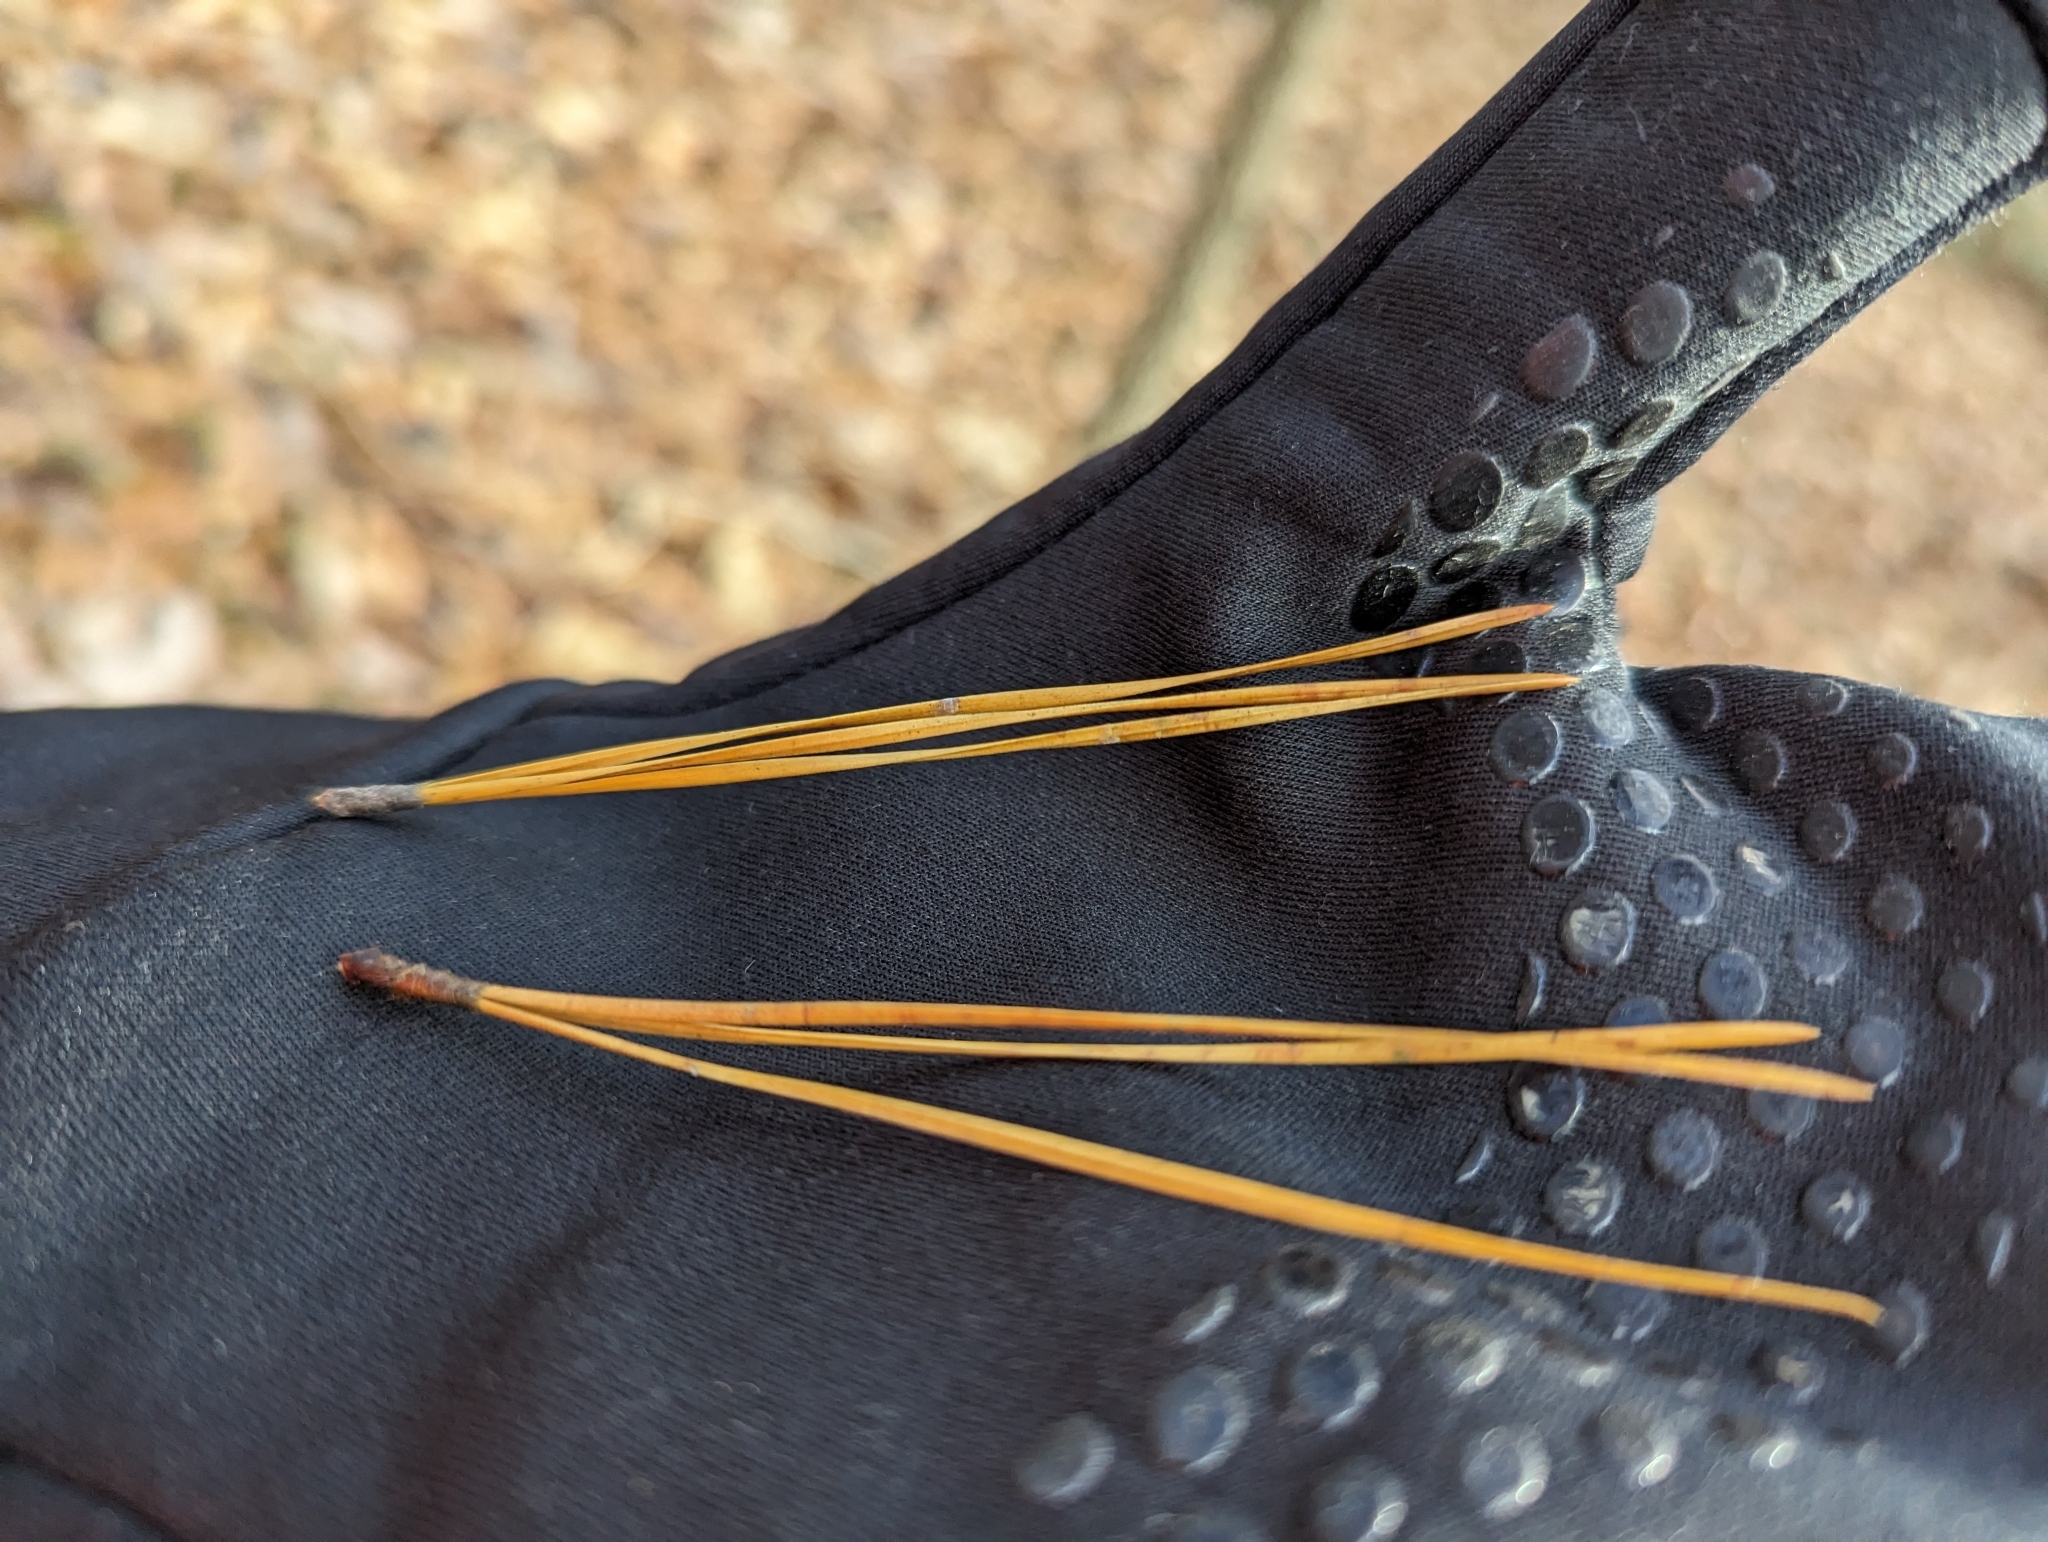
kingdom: Plantae
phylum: Tracheophyta
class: Pinopsida
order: Pinales
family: Pinaceae
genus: Pinus
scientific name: Pinus rigida
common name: Pitch pine
